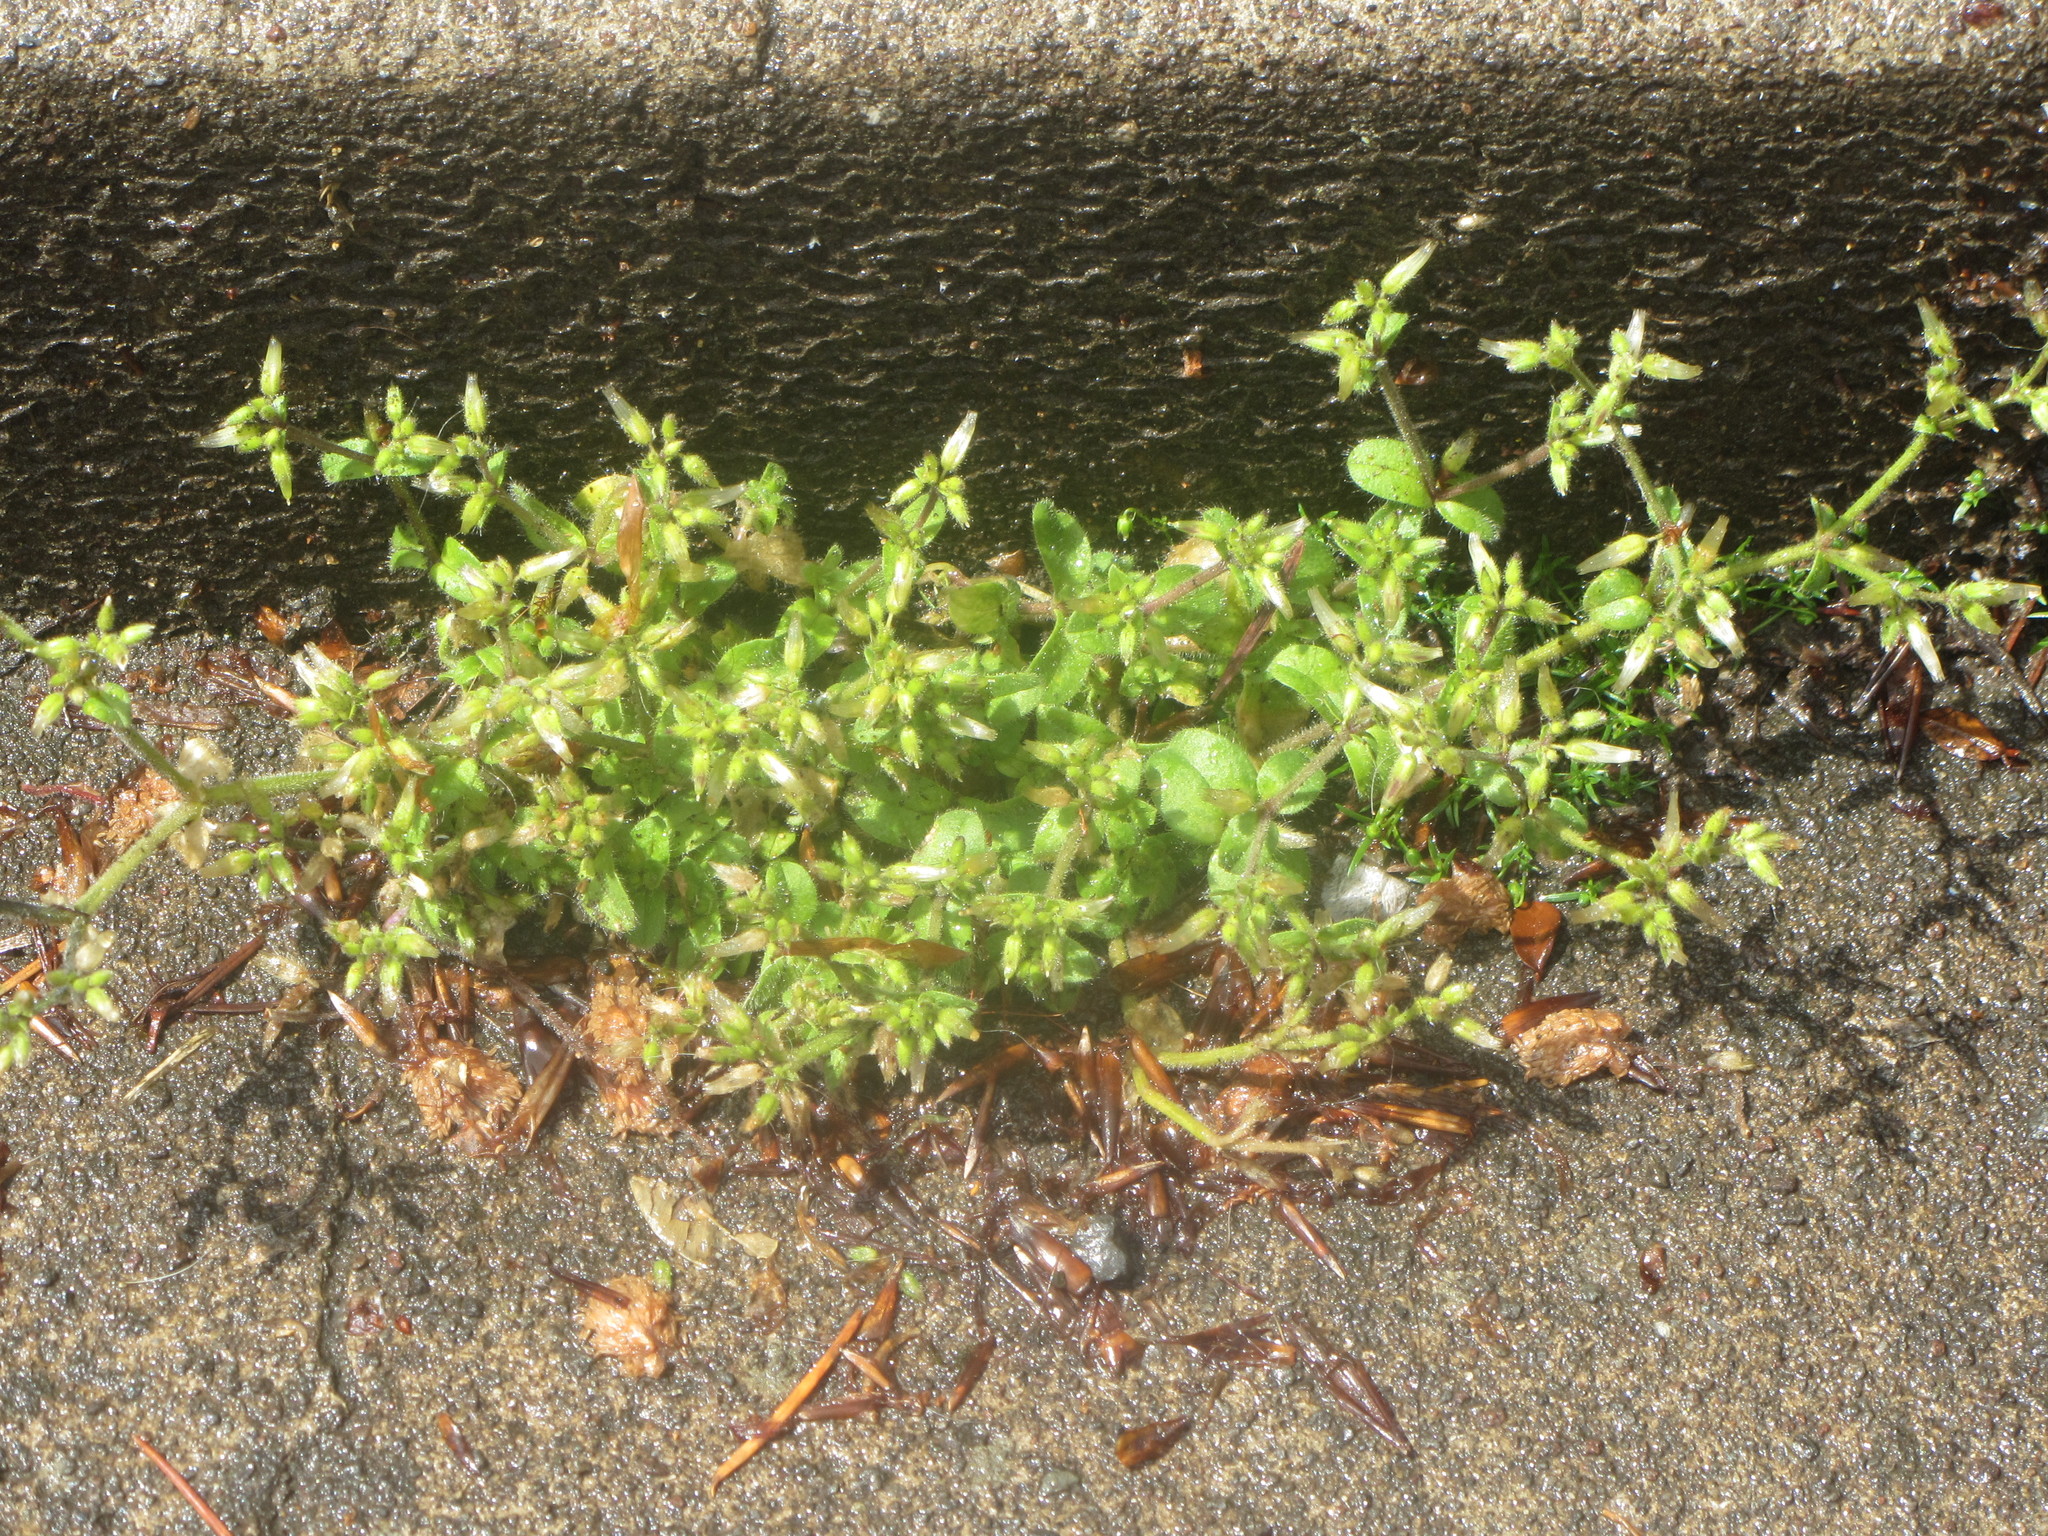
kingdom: Plantae
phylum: Tracheophyta
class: Magnoliopsida
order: Caryophyllales
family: Caryophyllaceae
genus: Stellaria
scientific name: Stellaria media
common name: Common chickweed
